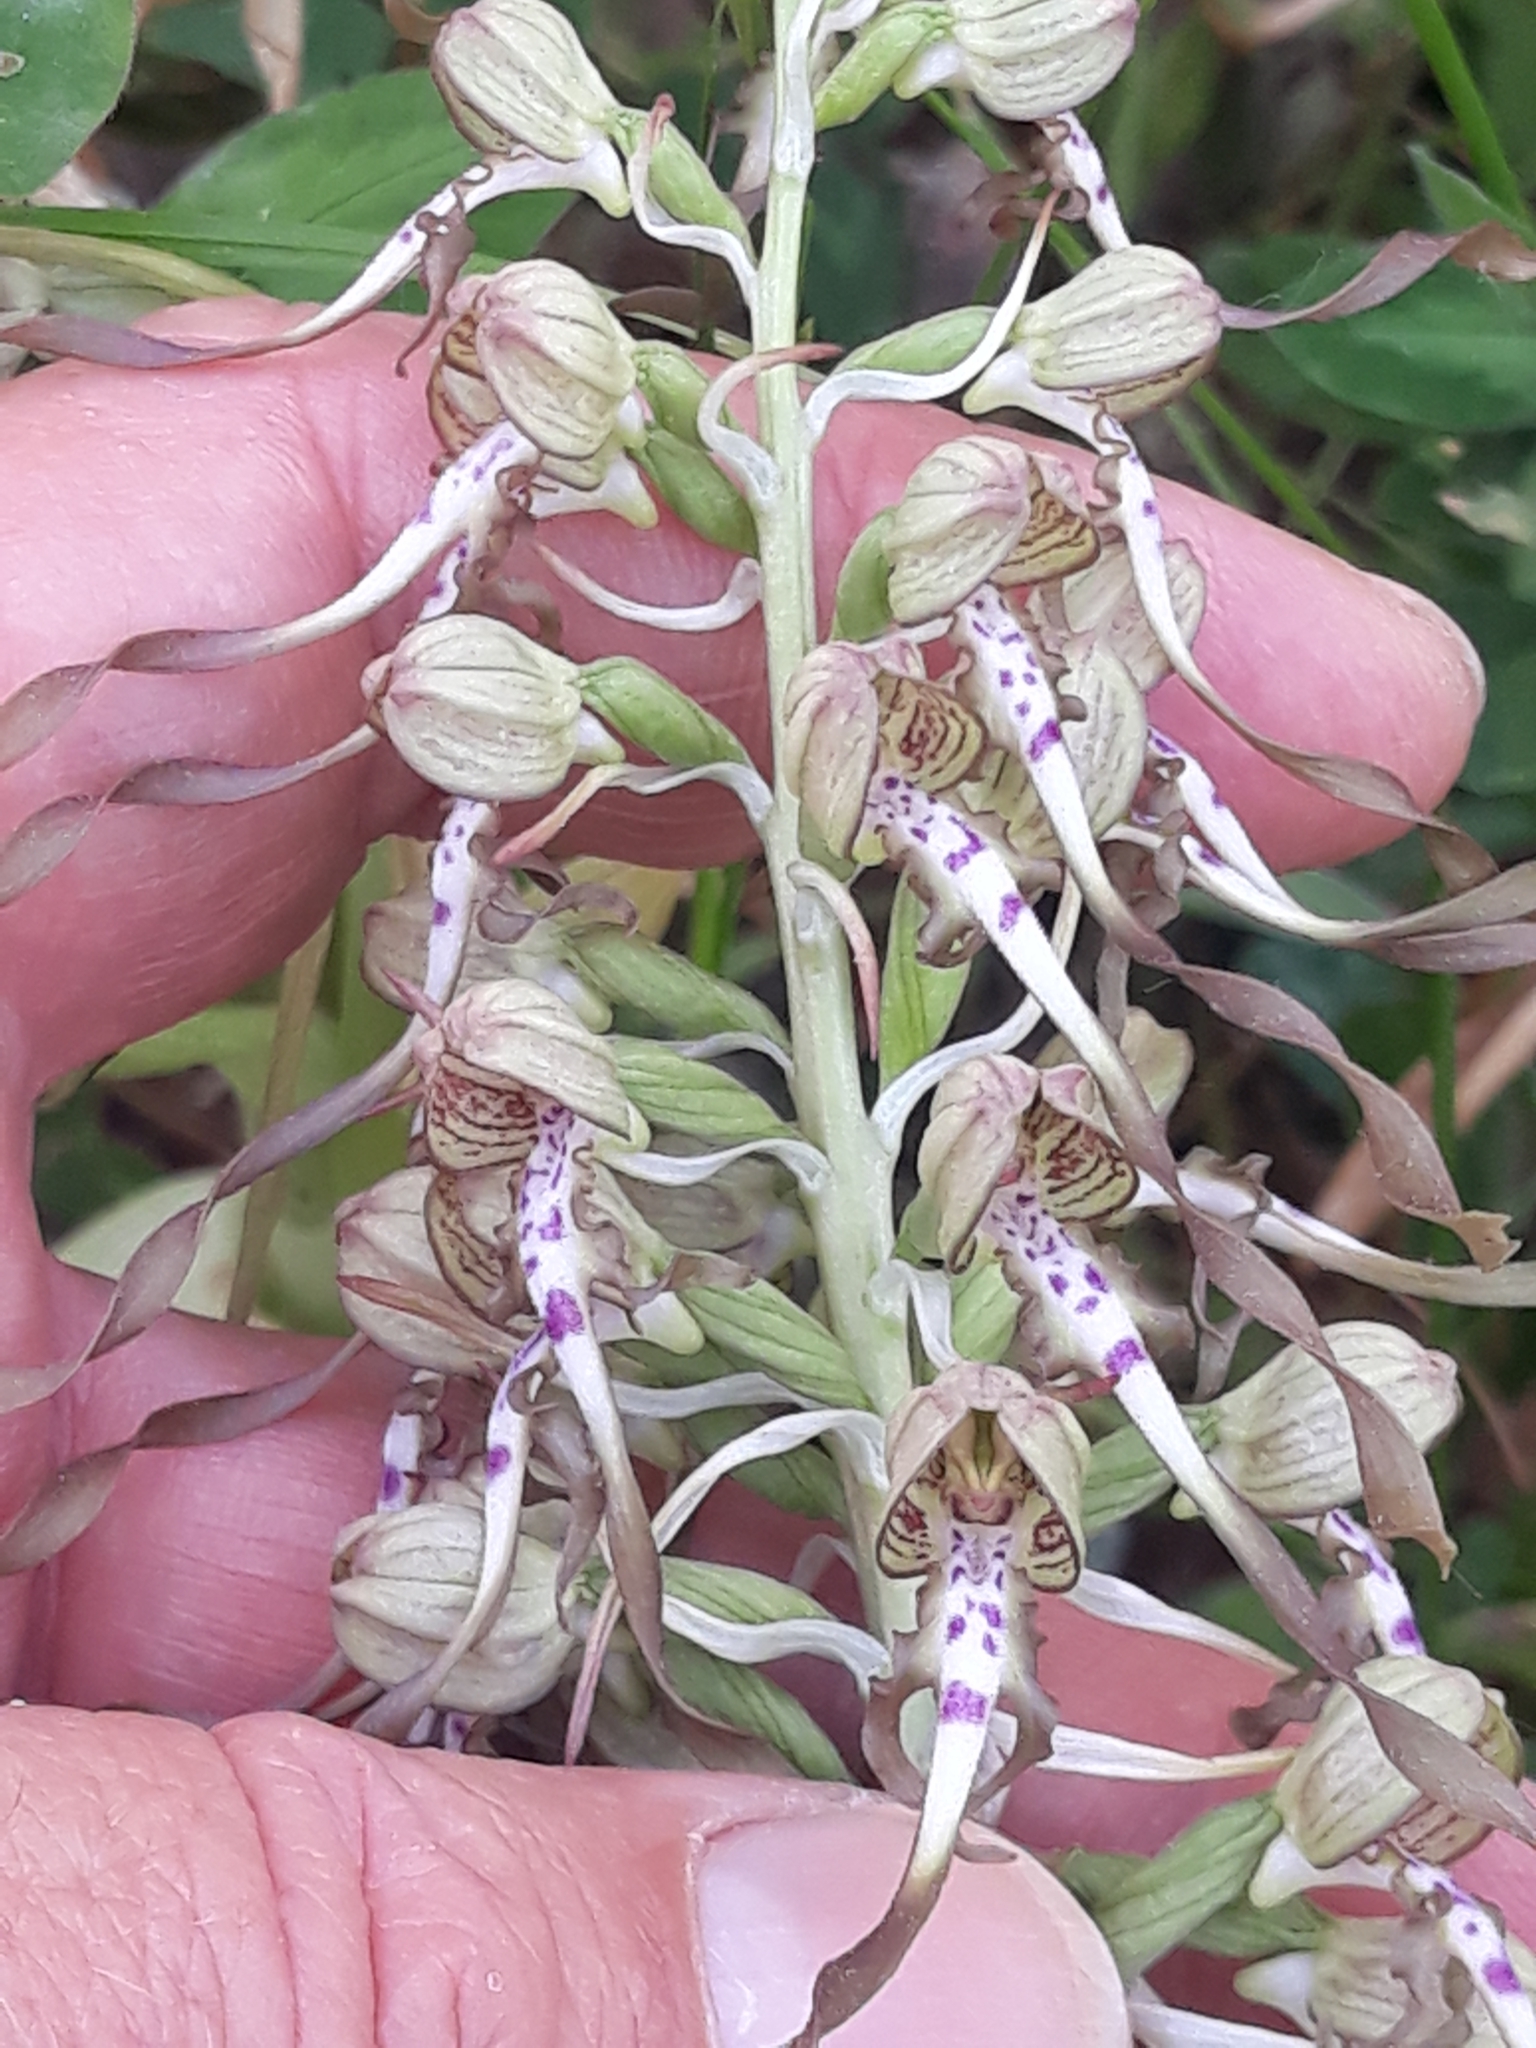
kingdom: Plantae
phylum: Tracheophyta
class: Liliopsida
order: Asparagales
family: Orchidaceae
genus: Himantoglossum
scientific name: Himantoglossum hircinum
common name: Lizard orchid
